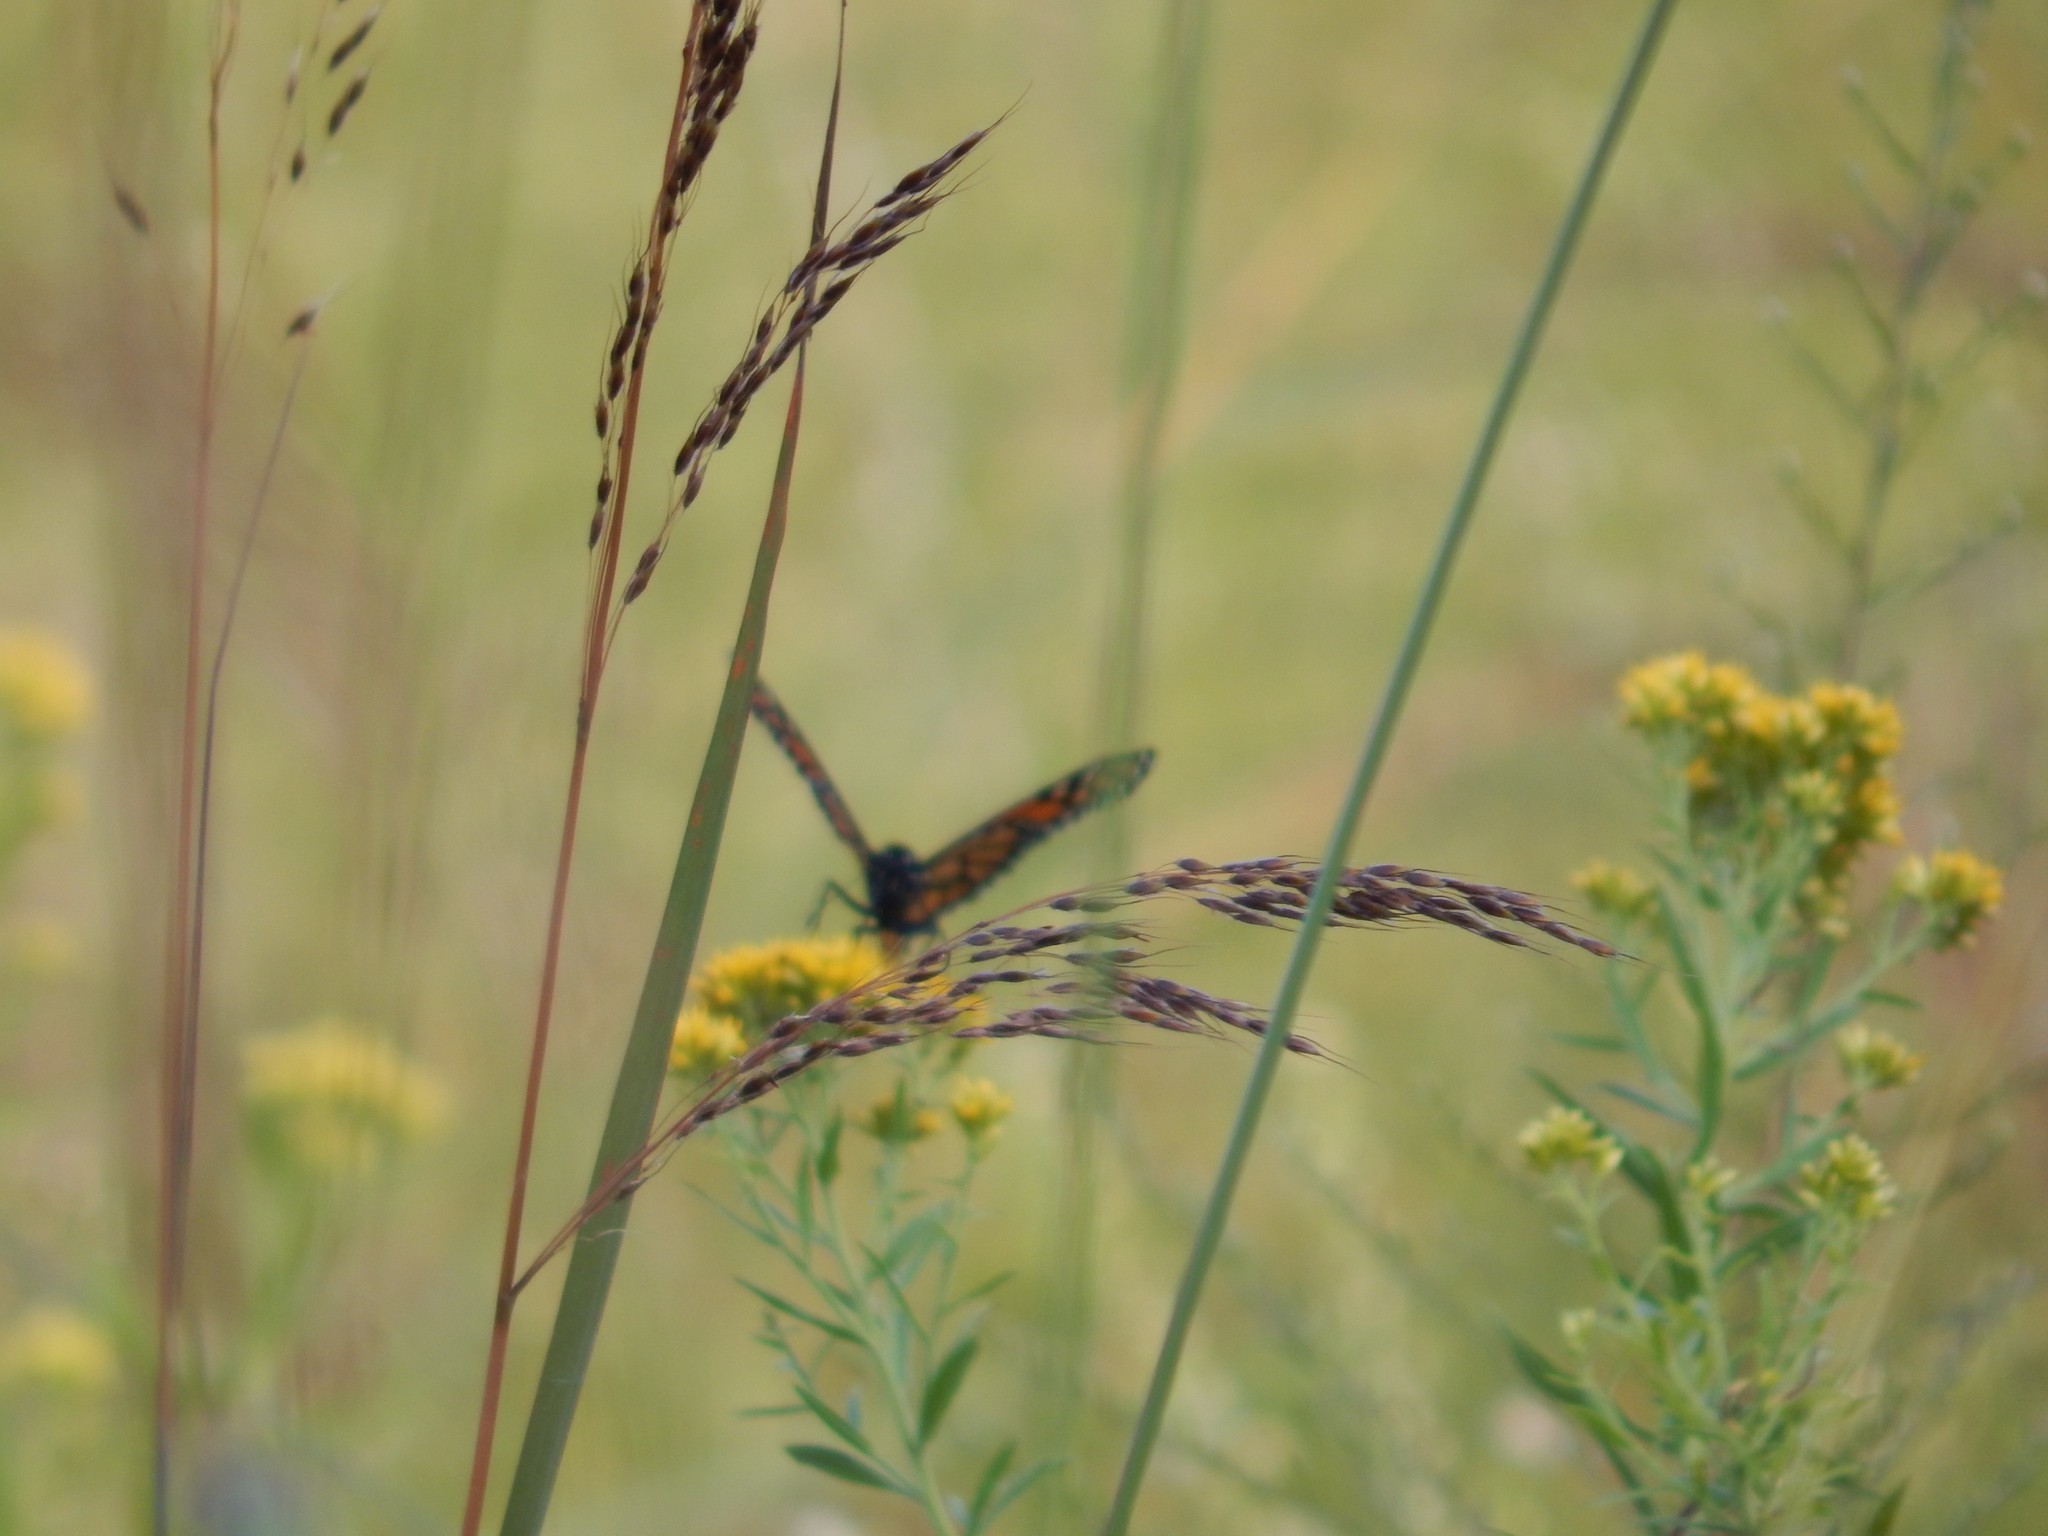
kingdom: Animalia
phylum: Arthropoda
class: Insecta
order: Lepidoptera
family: Nymphalidae
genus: Danaus
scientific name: Danaus plexippus
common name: Monarch
